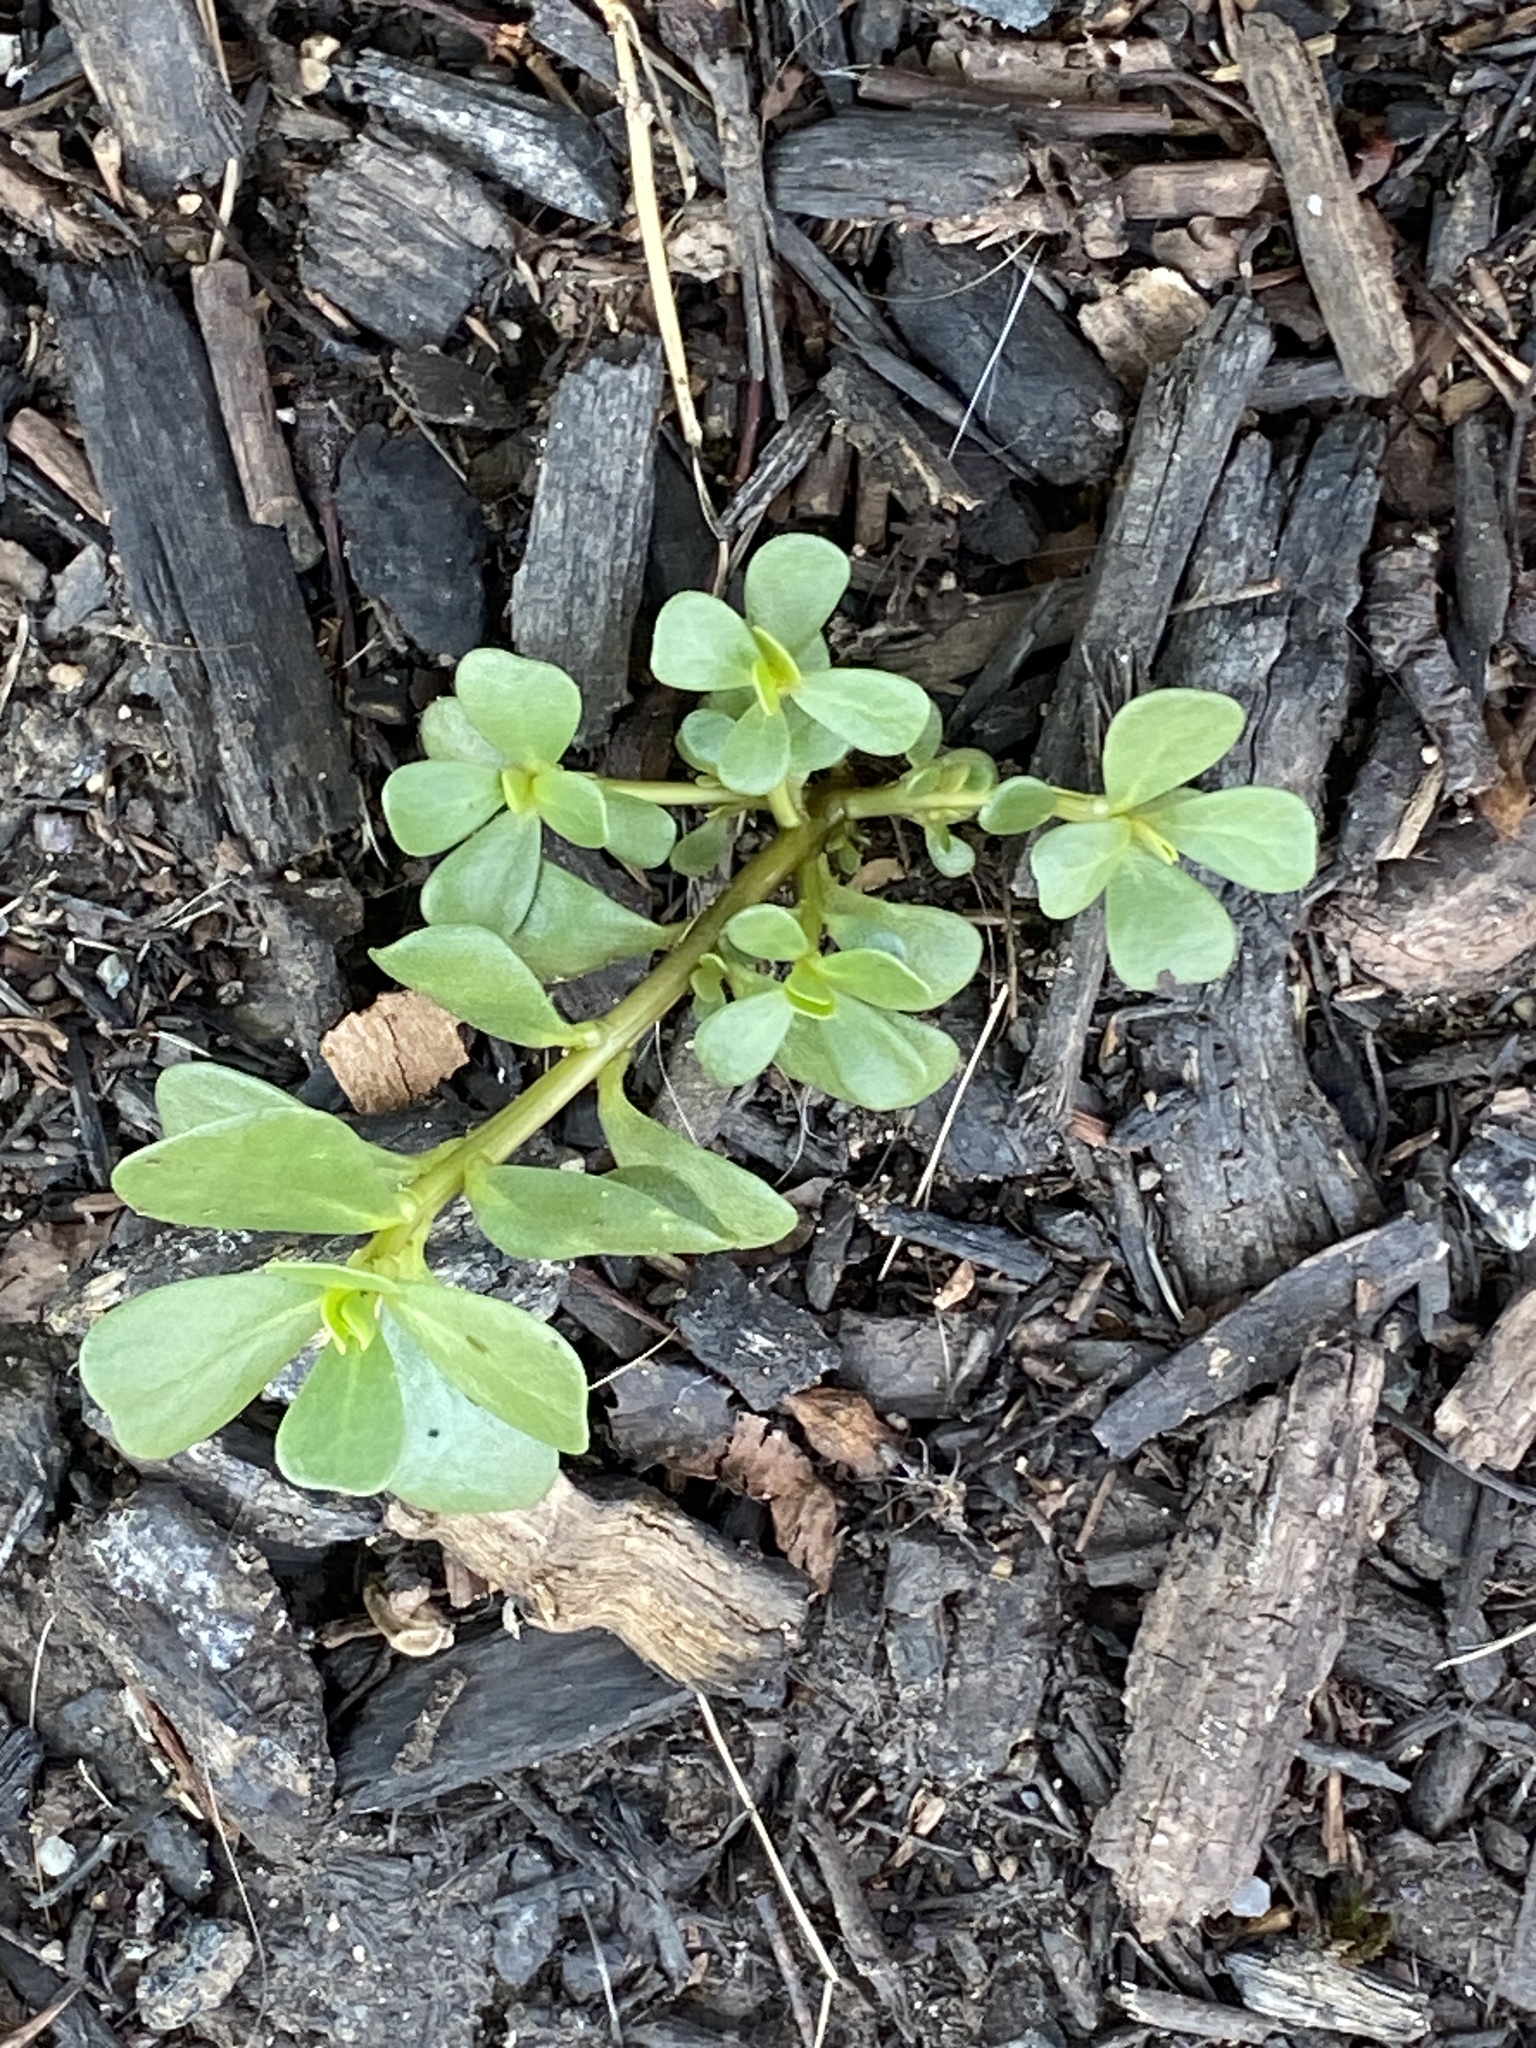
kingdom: Plantae
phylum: Tracheophyta
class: Magnoliopsida
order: Caryophyllales
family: Portulacaceae
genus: Portulaca
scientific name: Portulaca oleracea
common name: Common purslane
